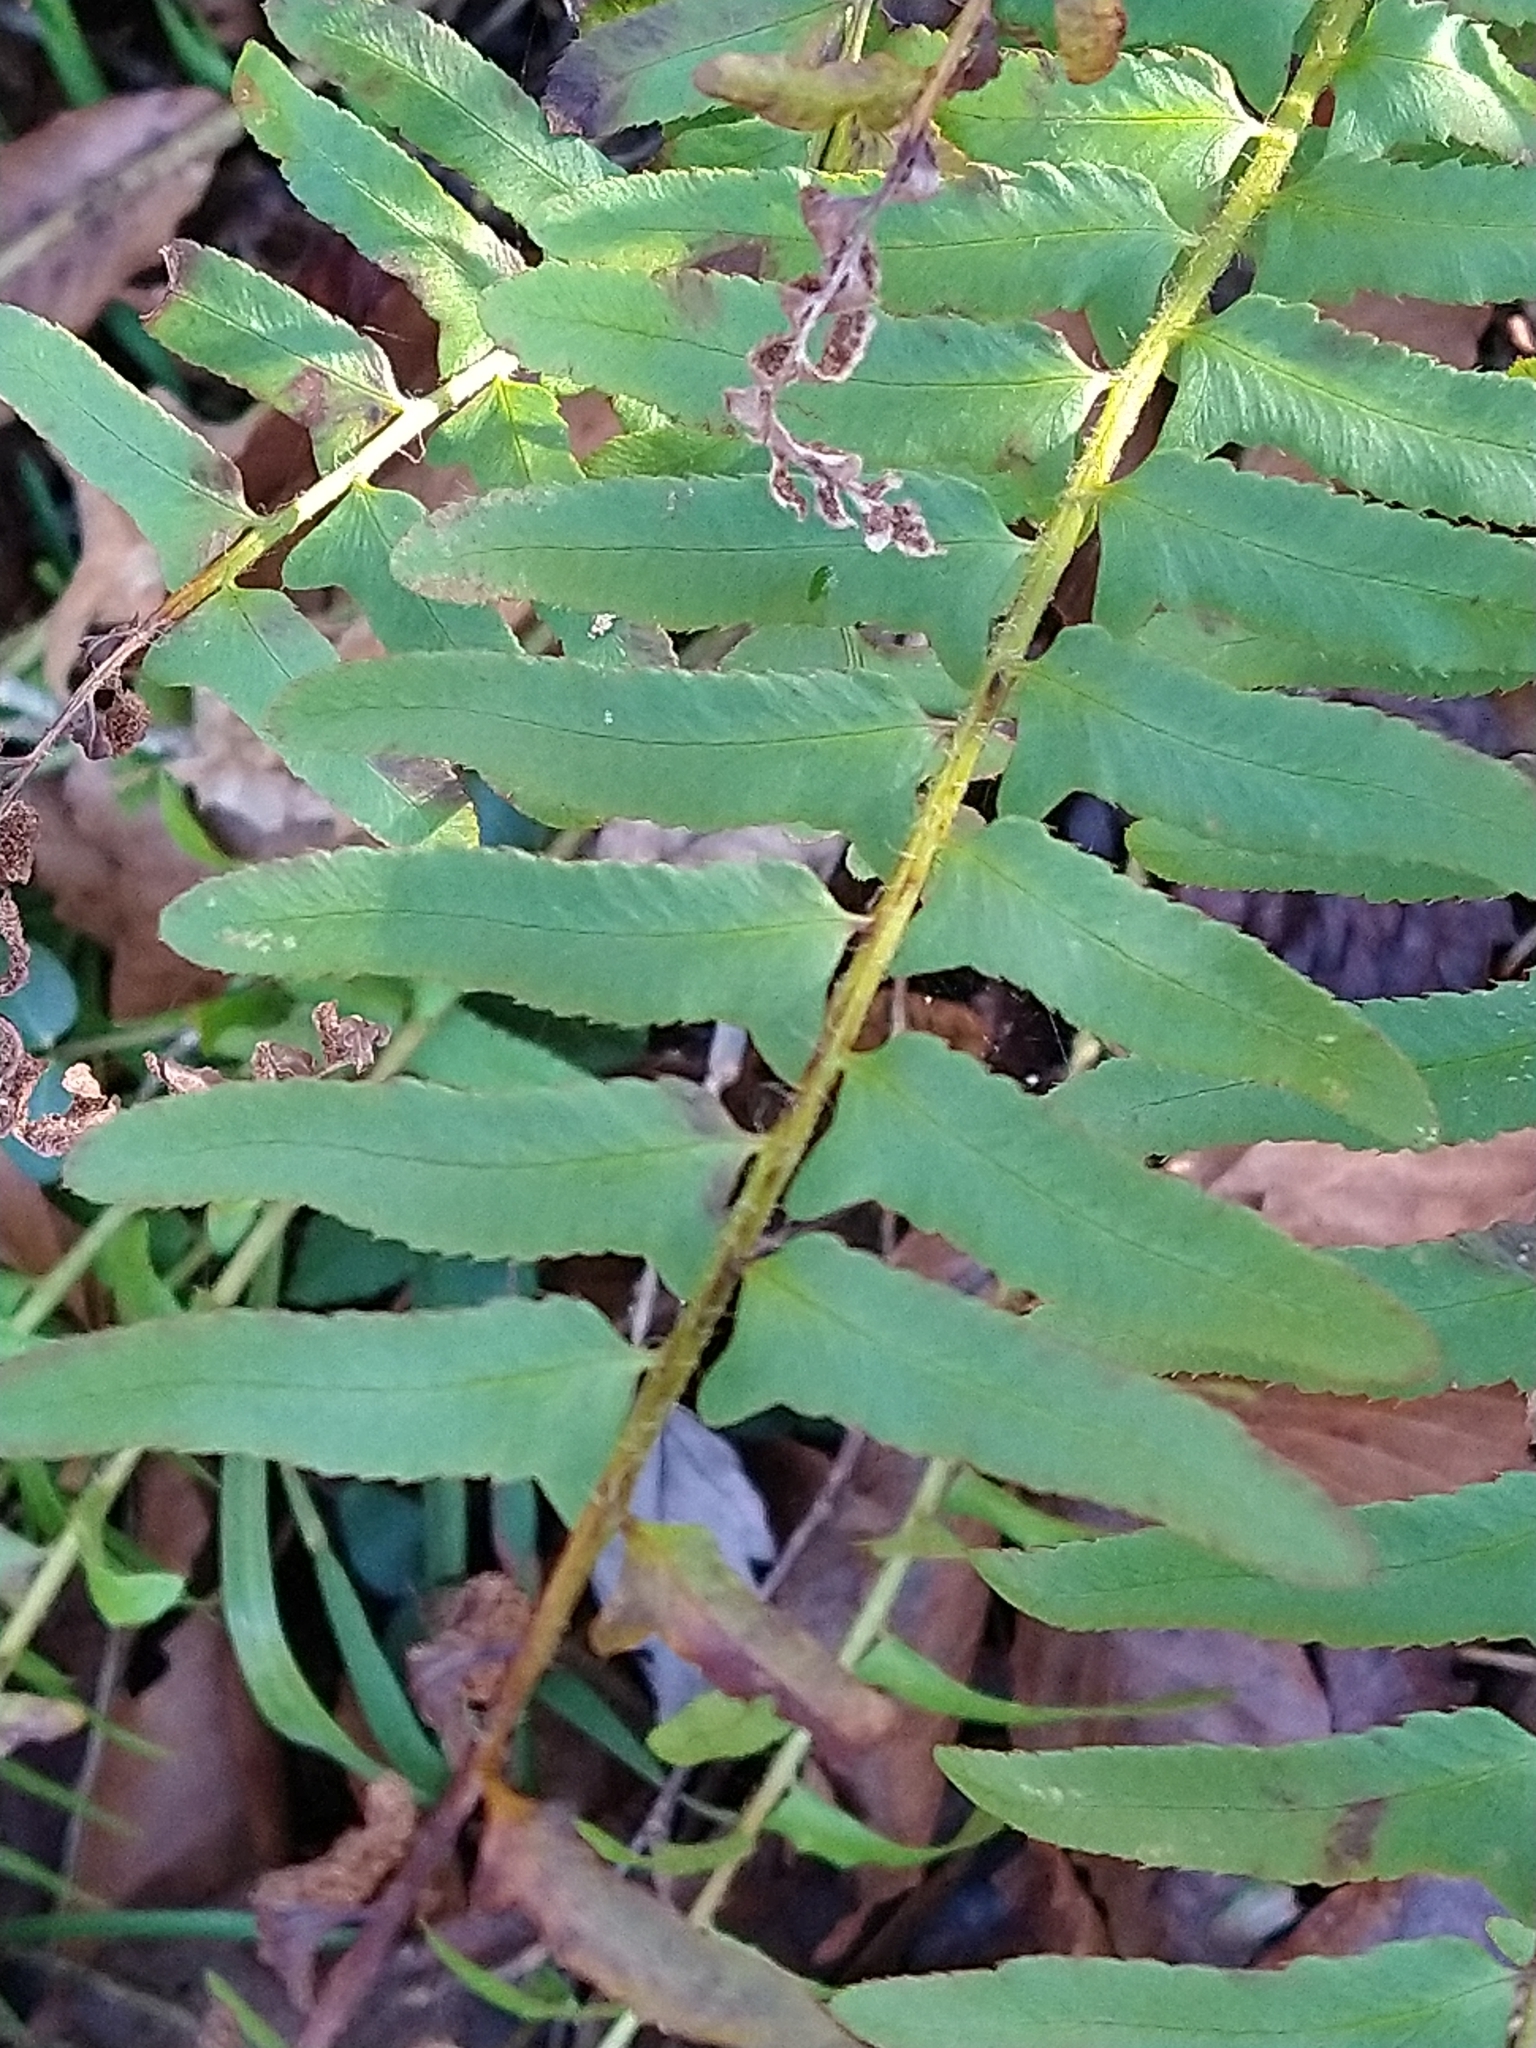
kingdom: Plantae
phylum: Tracheophyta
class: Polypodiopsida
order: Polypodiales
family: Dryopteridaceae
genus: Polystichum
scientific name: Polystichum acrostichoides
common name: Christmas fern
